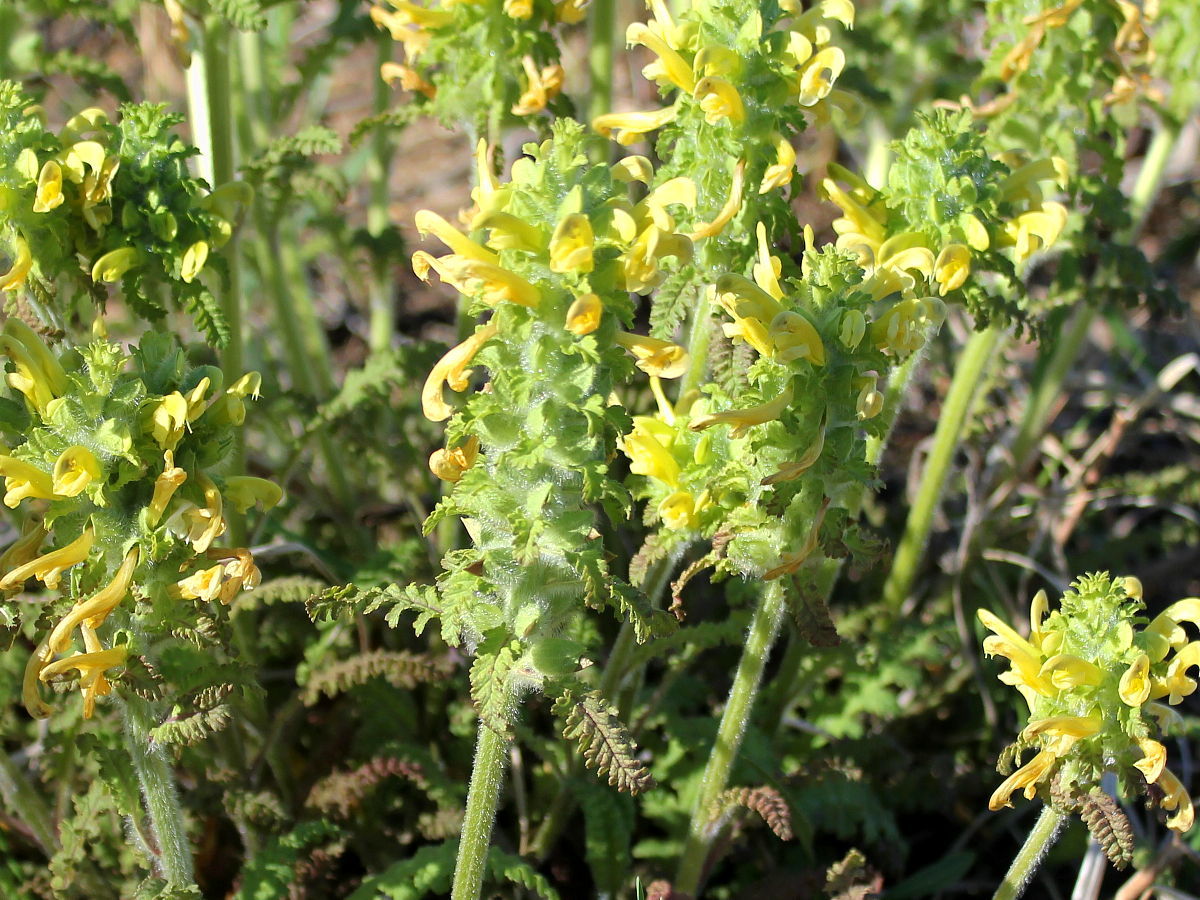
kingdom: Plantae
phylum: Tracheophyta
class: Magnoliopsida
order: Lamiales
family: Orobanchaceae
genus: Pedicularis
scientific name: Pedicularis canadensis
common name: Early lousewort
